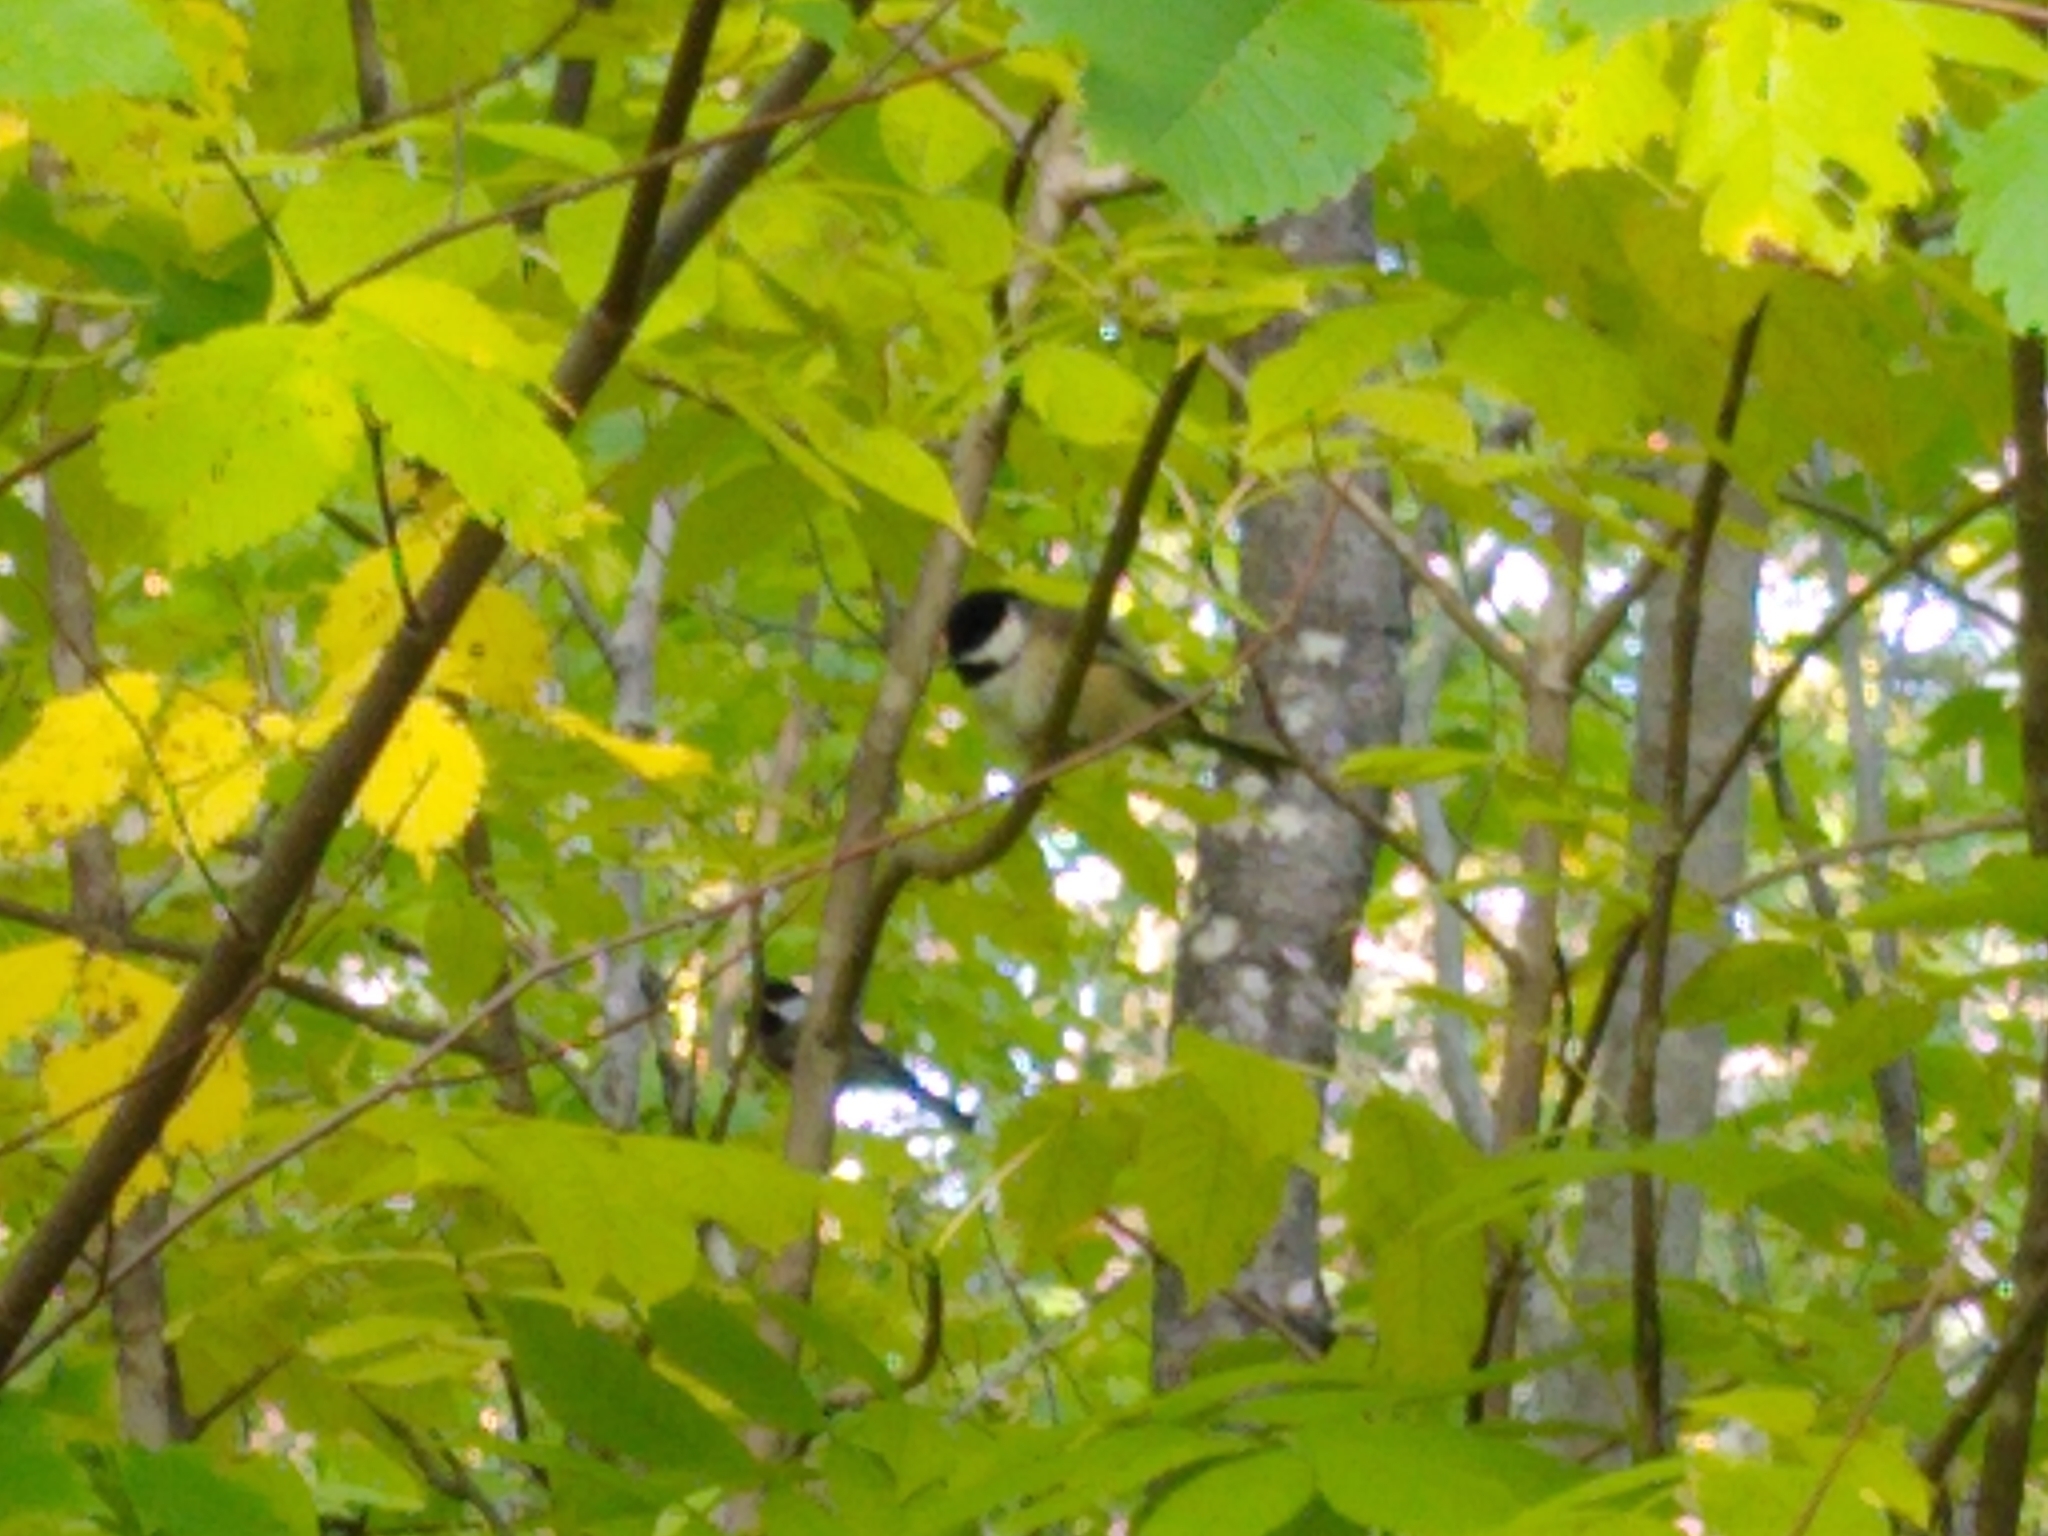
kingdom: Animalia
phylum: Chordata
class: Aves
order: Passeriformes
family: Paridae
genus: Poecile
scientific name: Poecile atricapillus
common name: Black-capped chickadee
